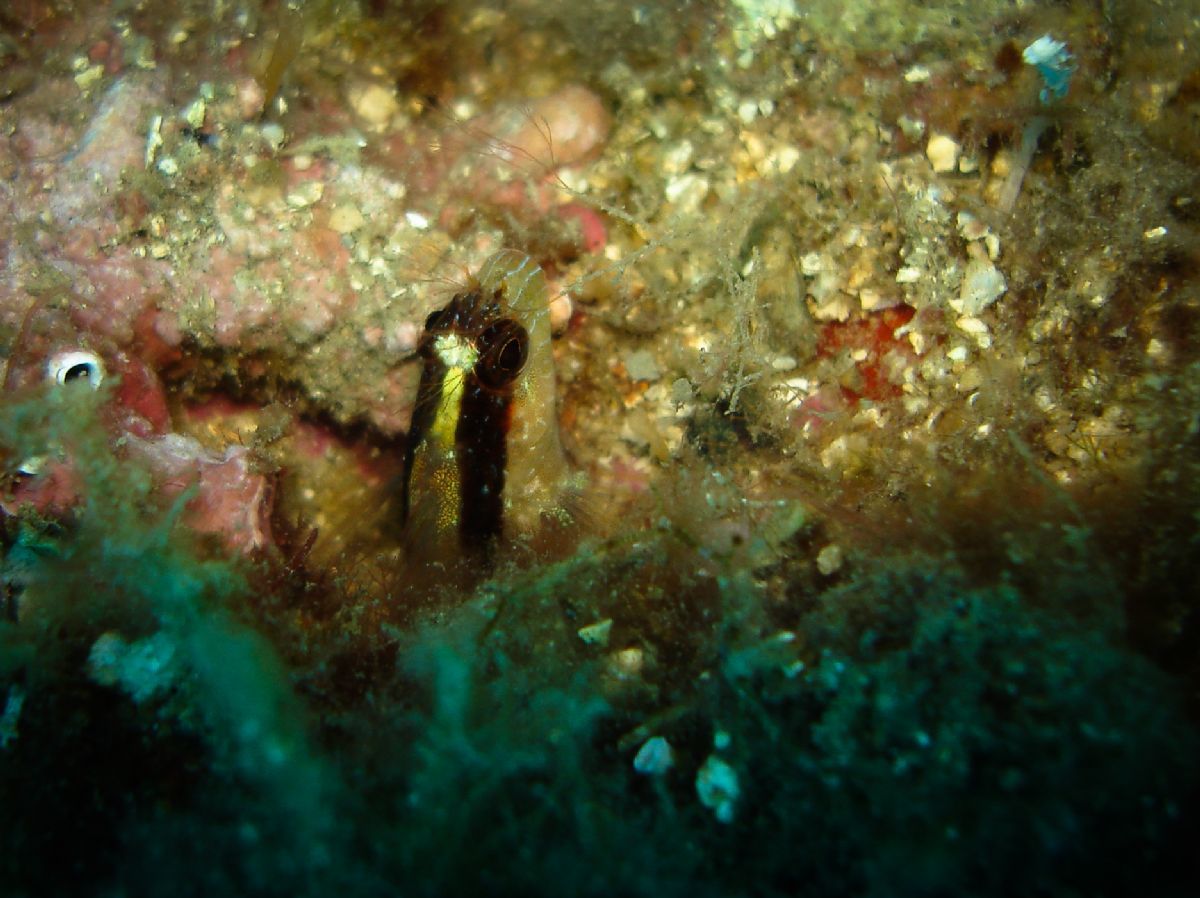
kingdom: Animalia
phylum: Chordata
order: Perciformes
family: Blenniidae
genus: Parablennius
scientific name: Parablennius rouxi
